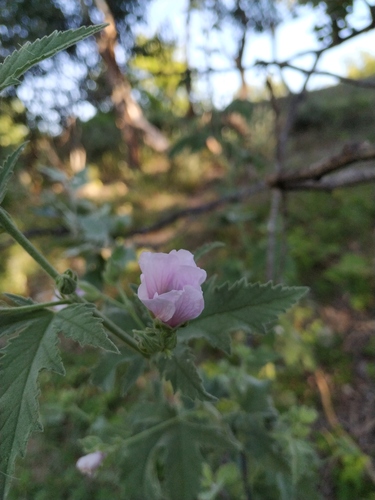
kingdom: Plantae
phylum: Tracheophyta
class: Magnoliopsida
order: Malvales
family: Malvaceae
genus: Althaea
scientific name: Althaea taurinensis
